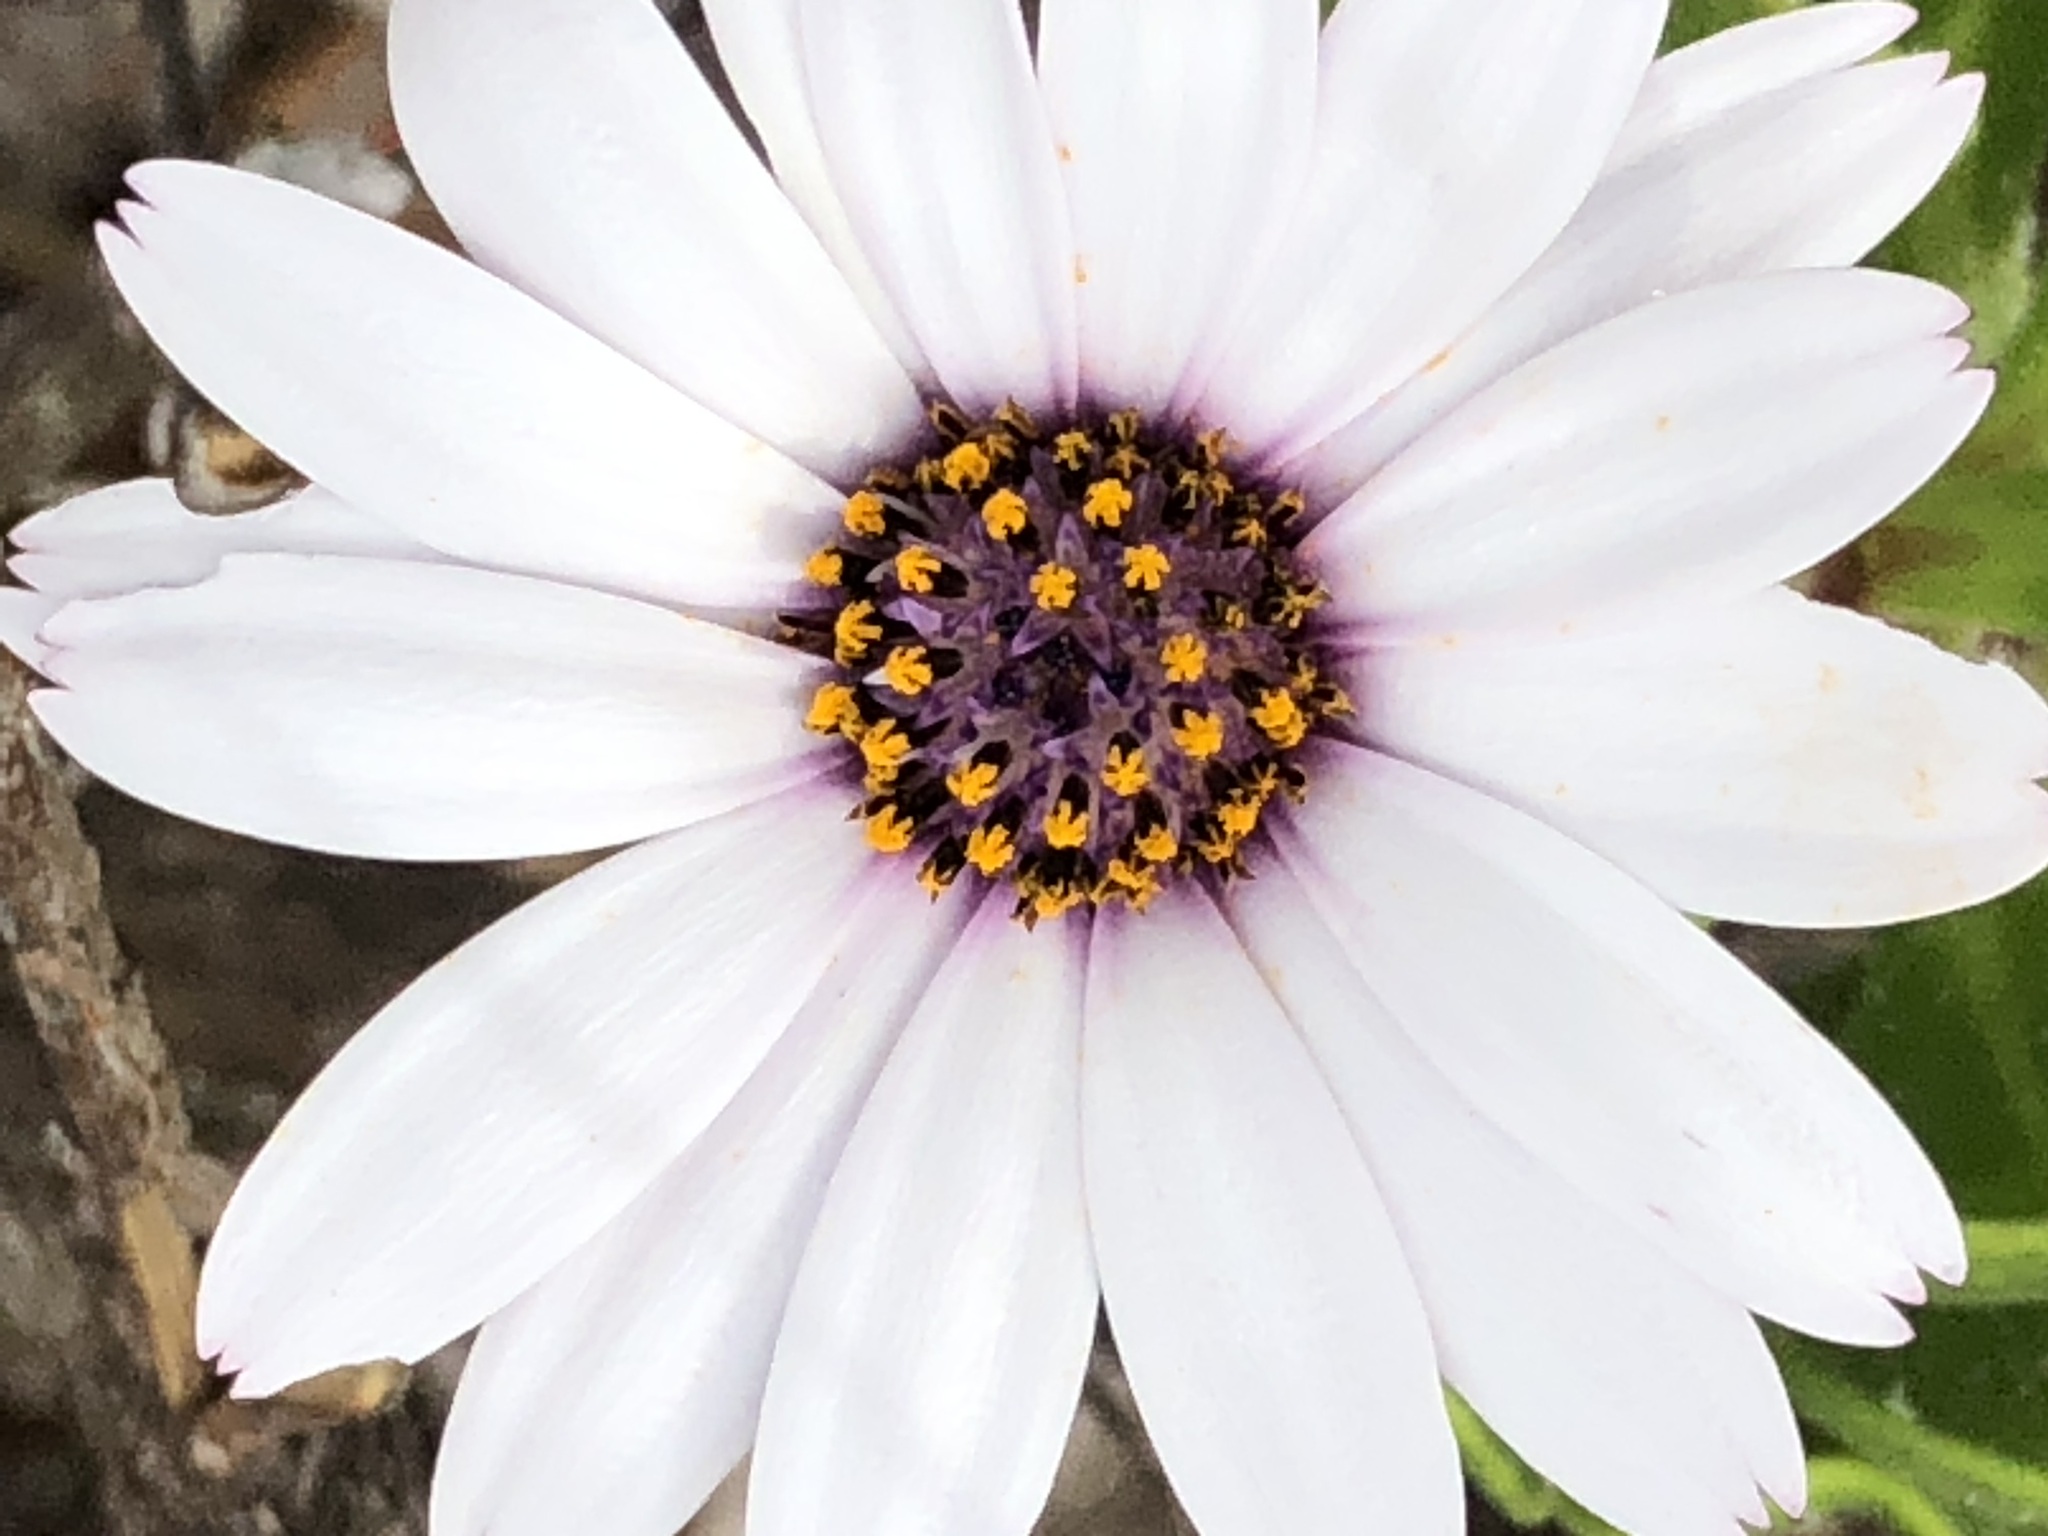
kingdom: Plantae
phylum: Tracheophyta
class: Magnoliopsida
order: Asterales
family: Asteraceae
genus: Dimorphotheca
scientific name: Dimorphotheca fruticosa
